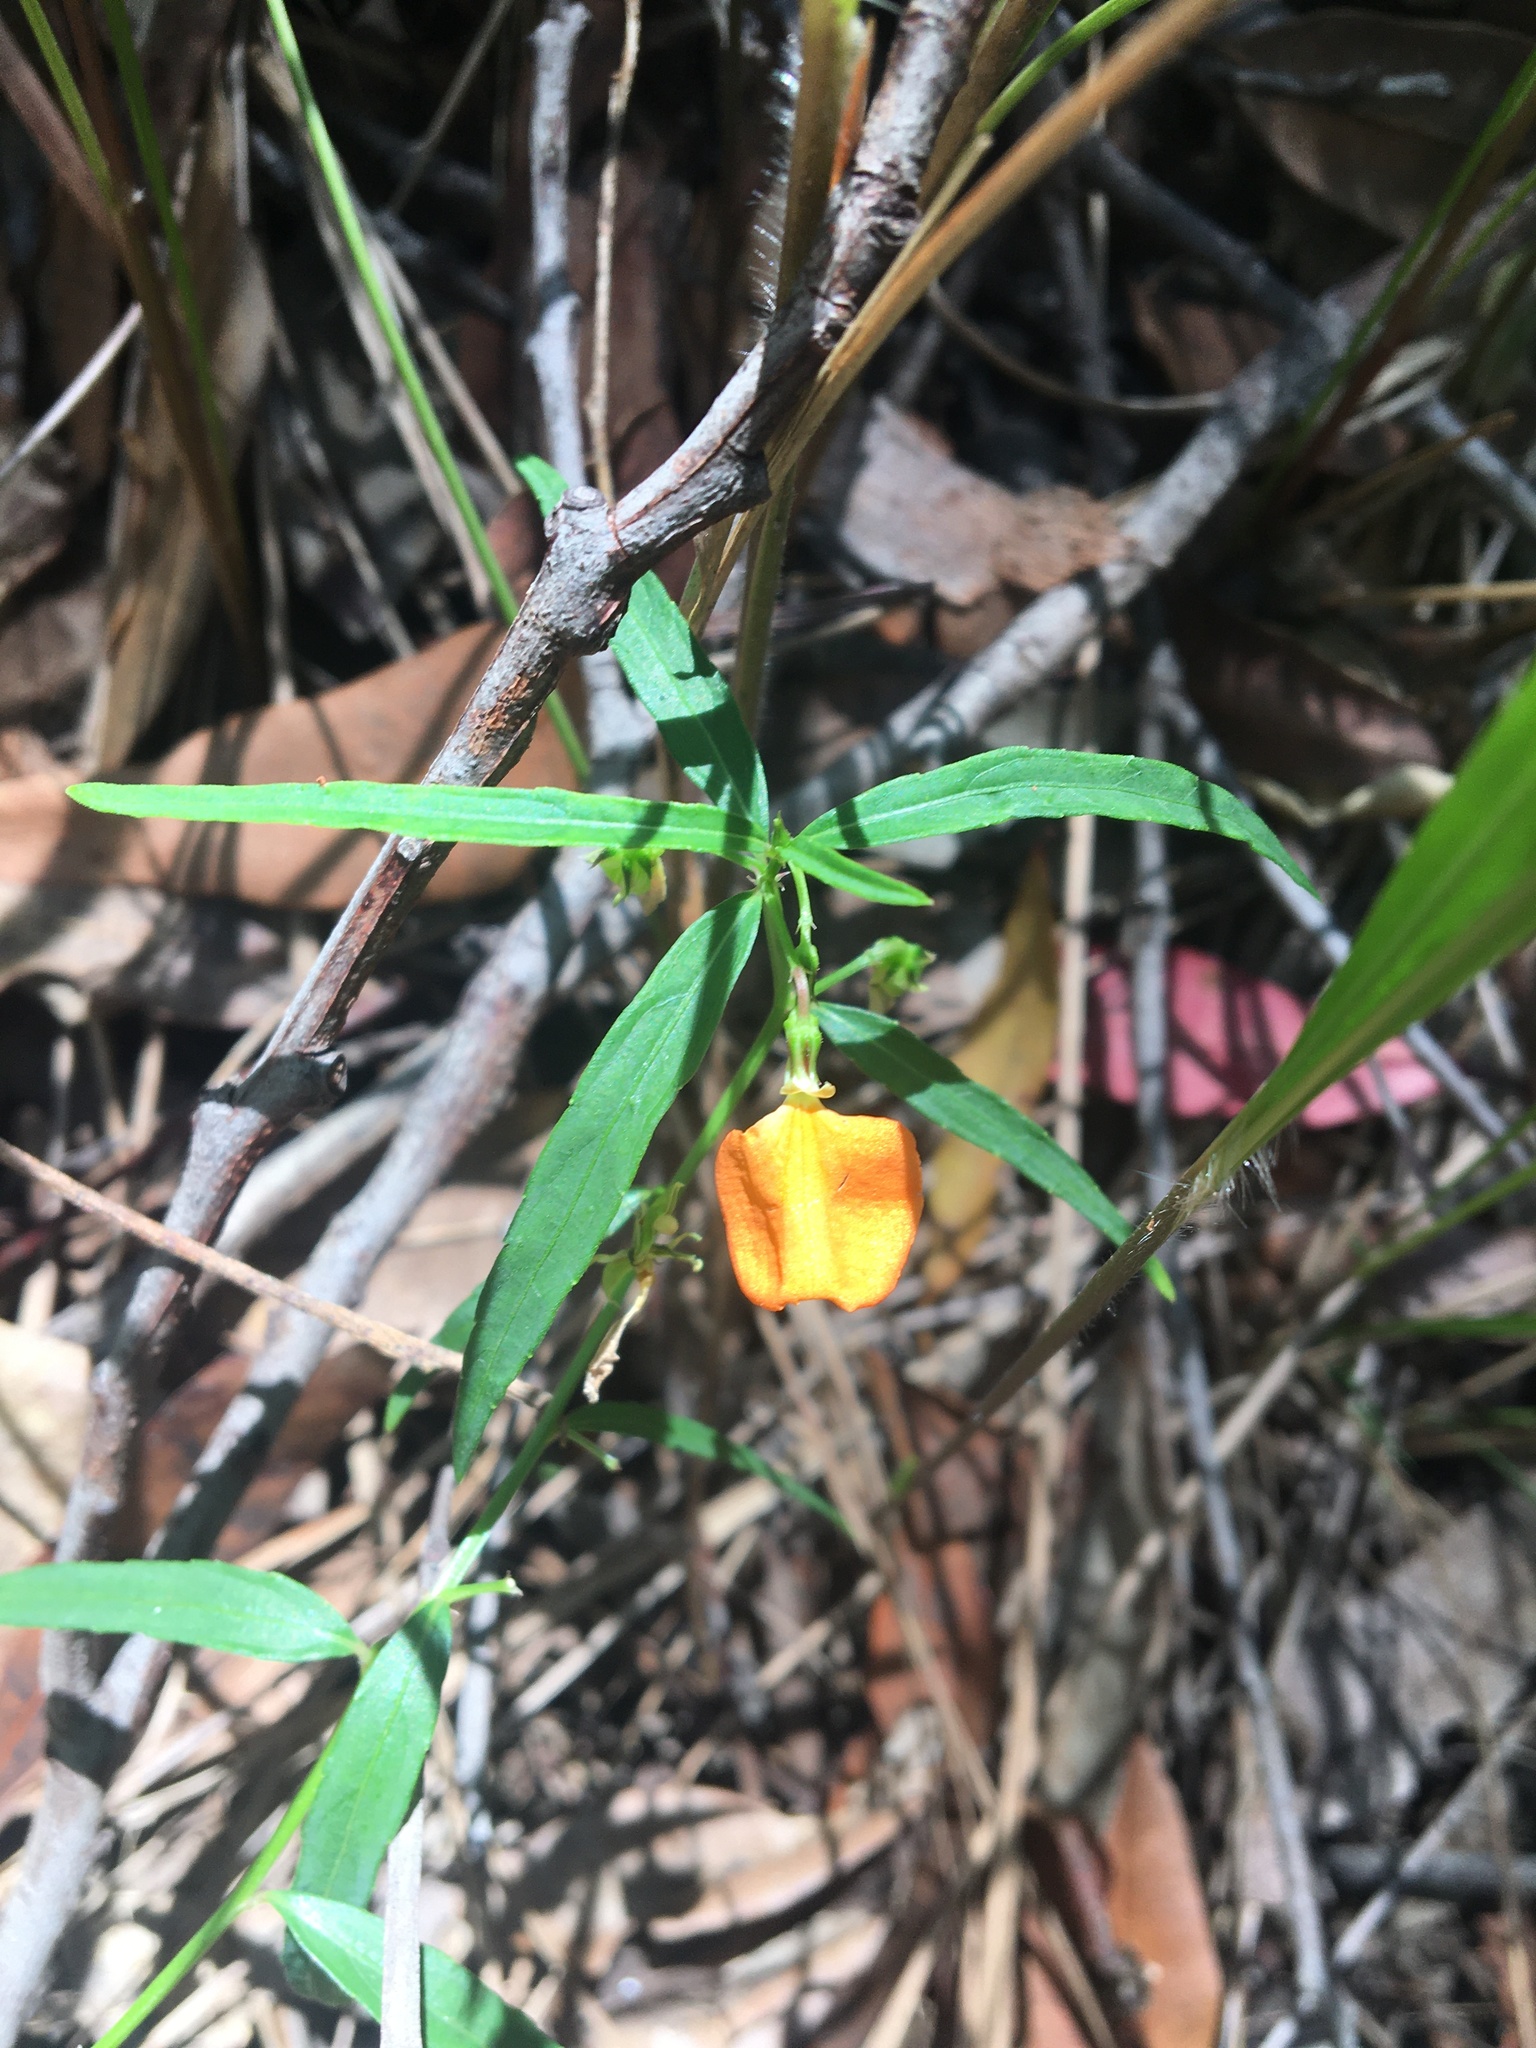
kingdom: Plantae
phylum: Tracheophyta
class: Magnoliopsida
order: Malpighiales
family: Violaceae
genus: Pigea
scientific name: Pigea stellarioides
